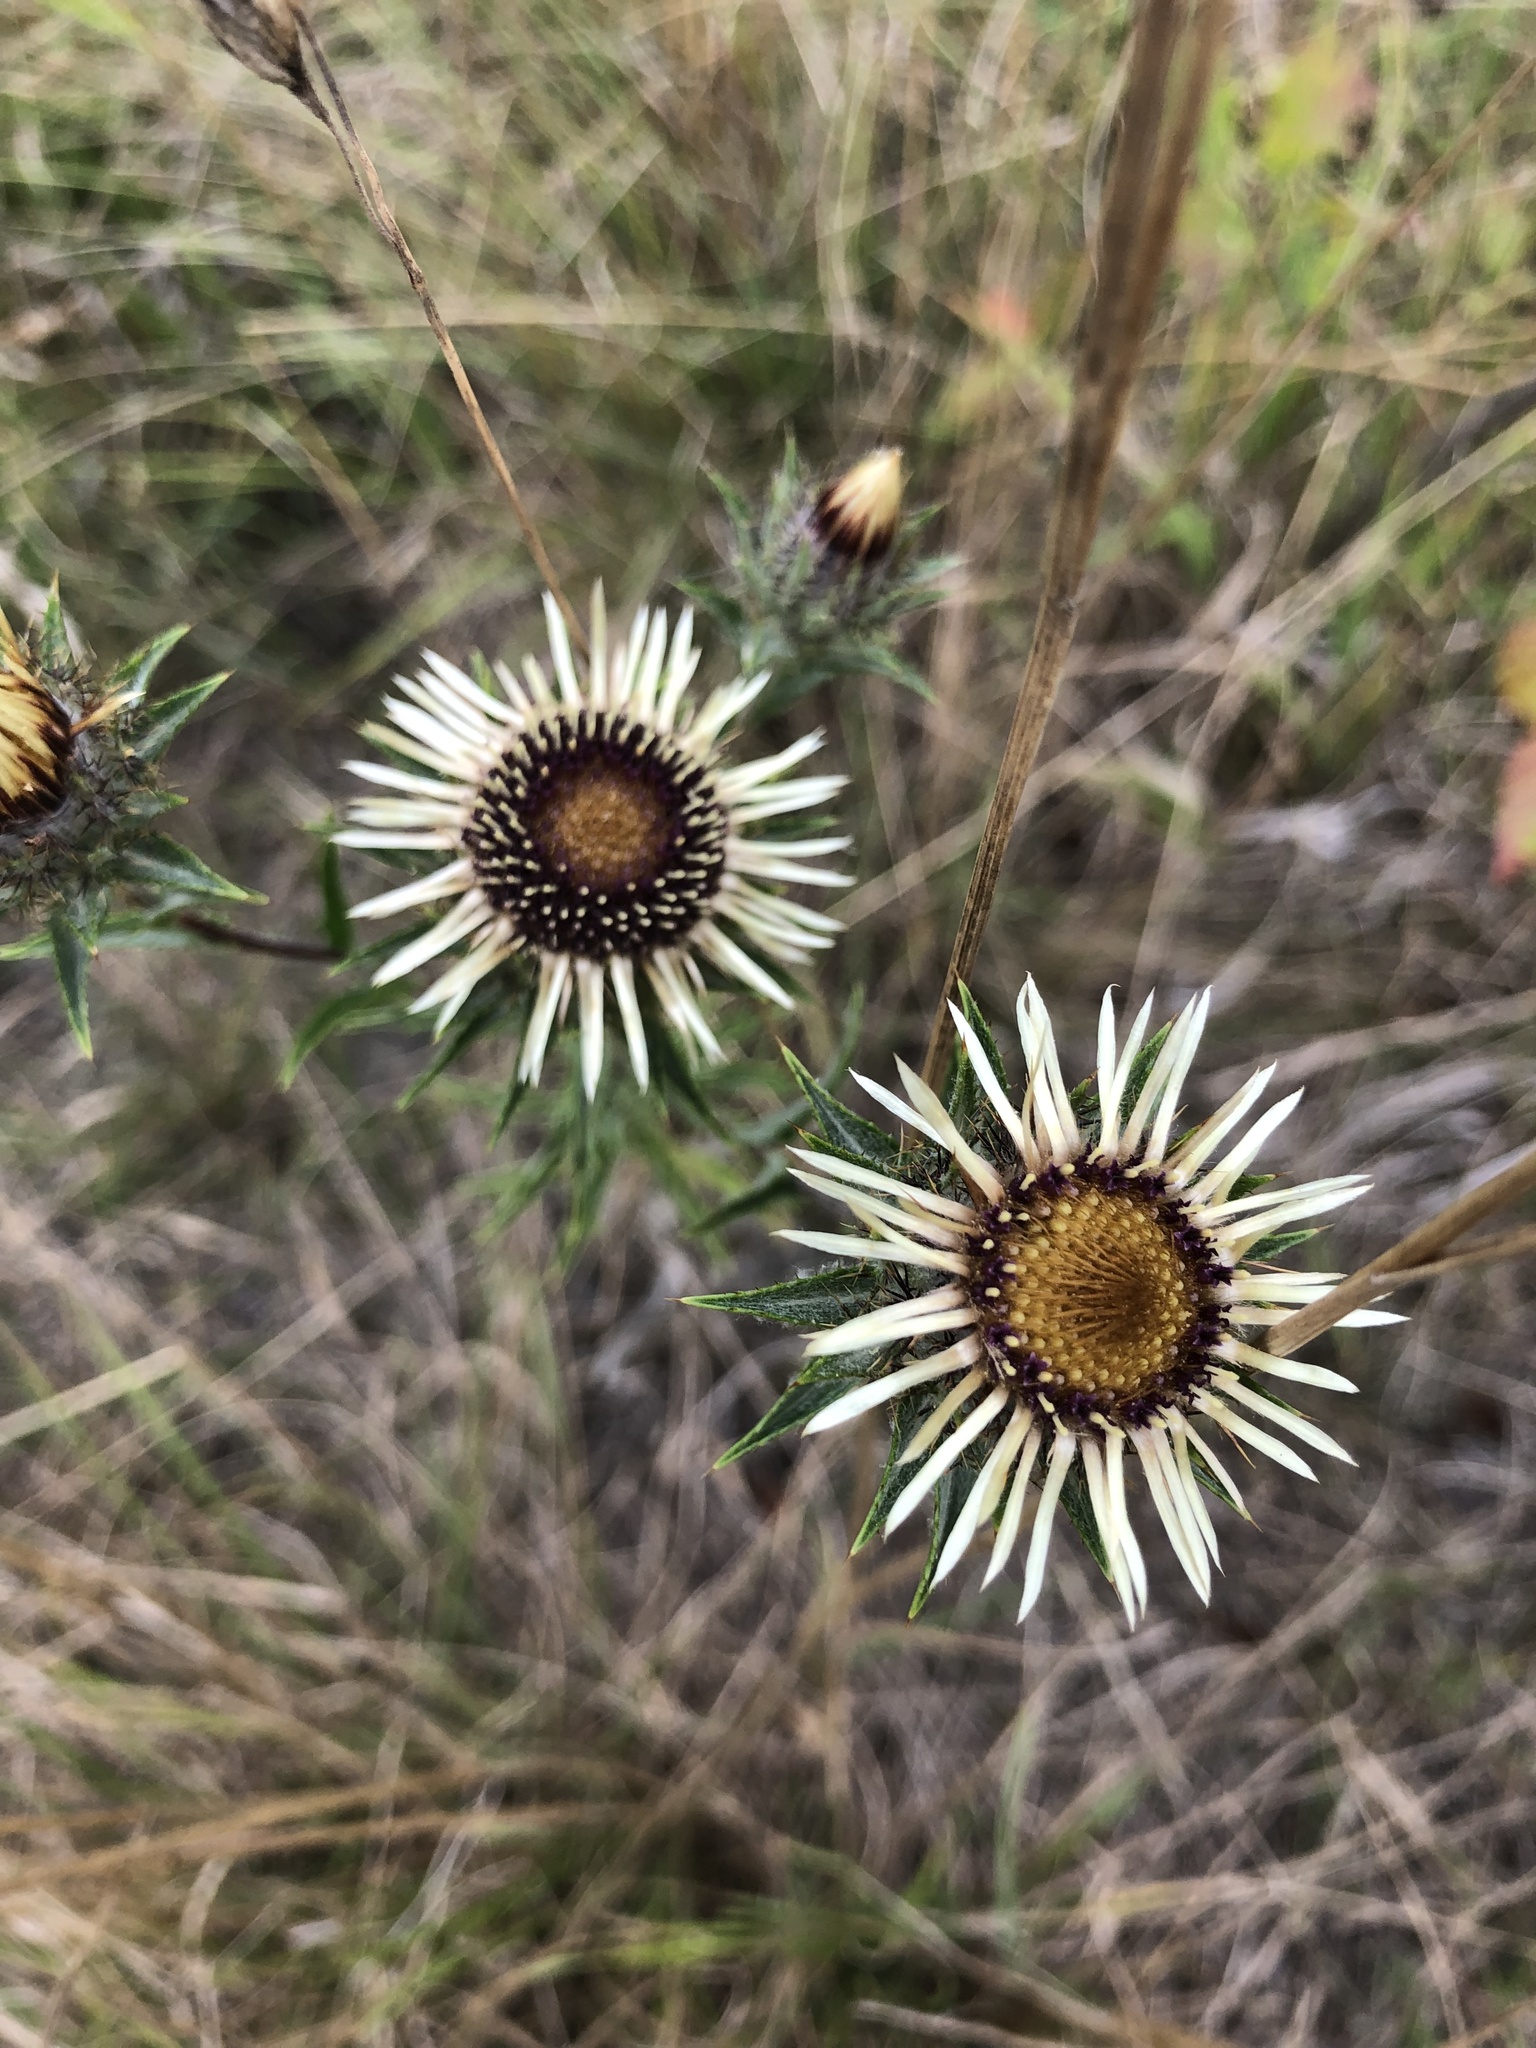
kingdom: Plantae
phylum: Tracheophyta
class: Magnoliopsida
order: Asterales
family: Asteraceae
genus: Carlina
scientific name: Carlina vulgaris
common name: Carline thistle
